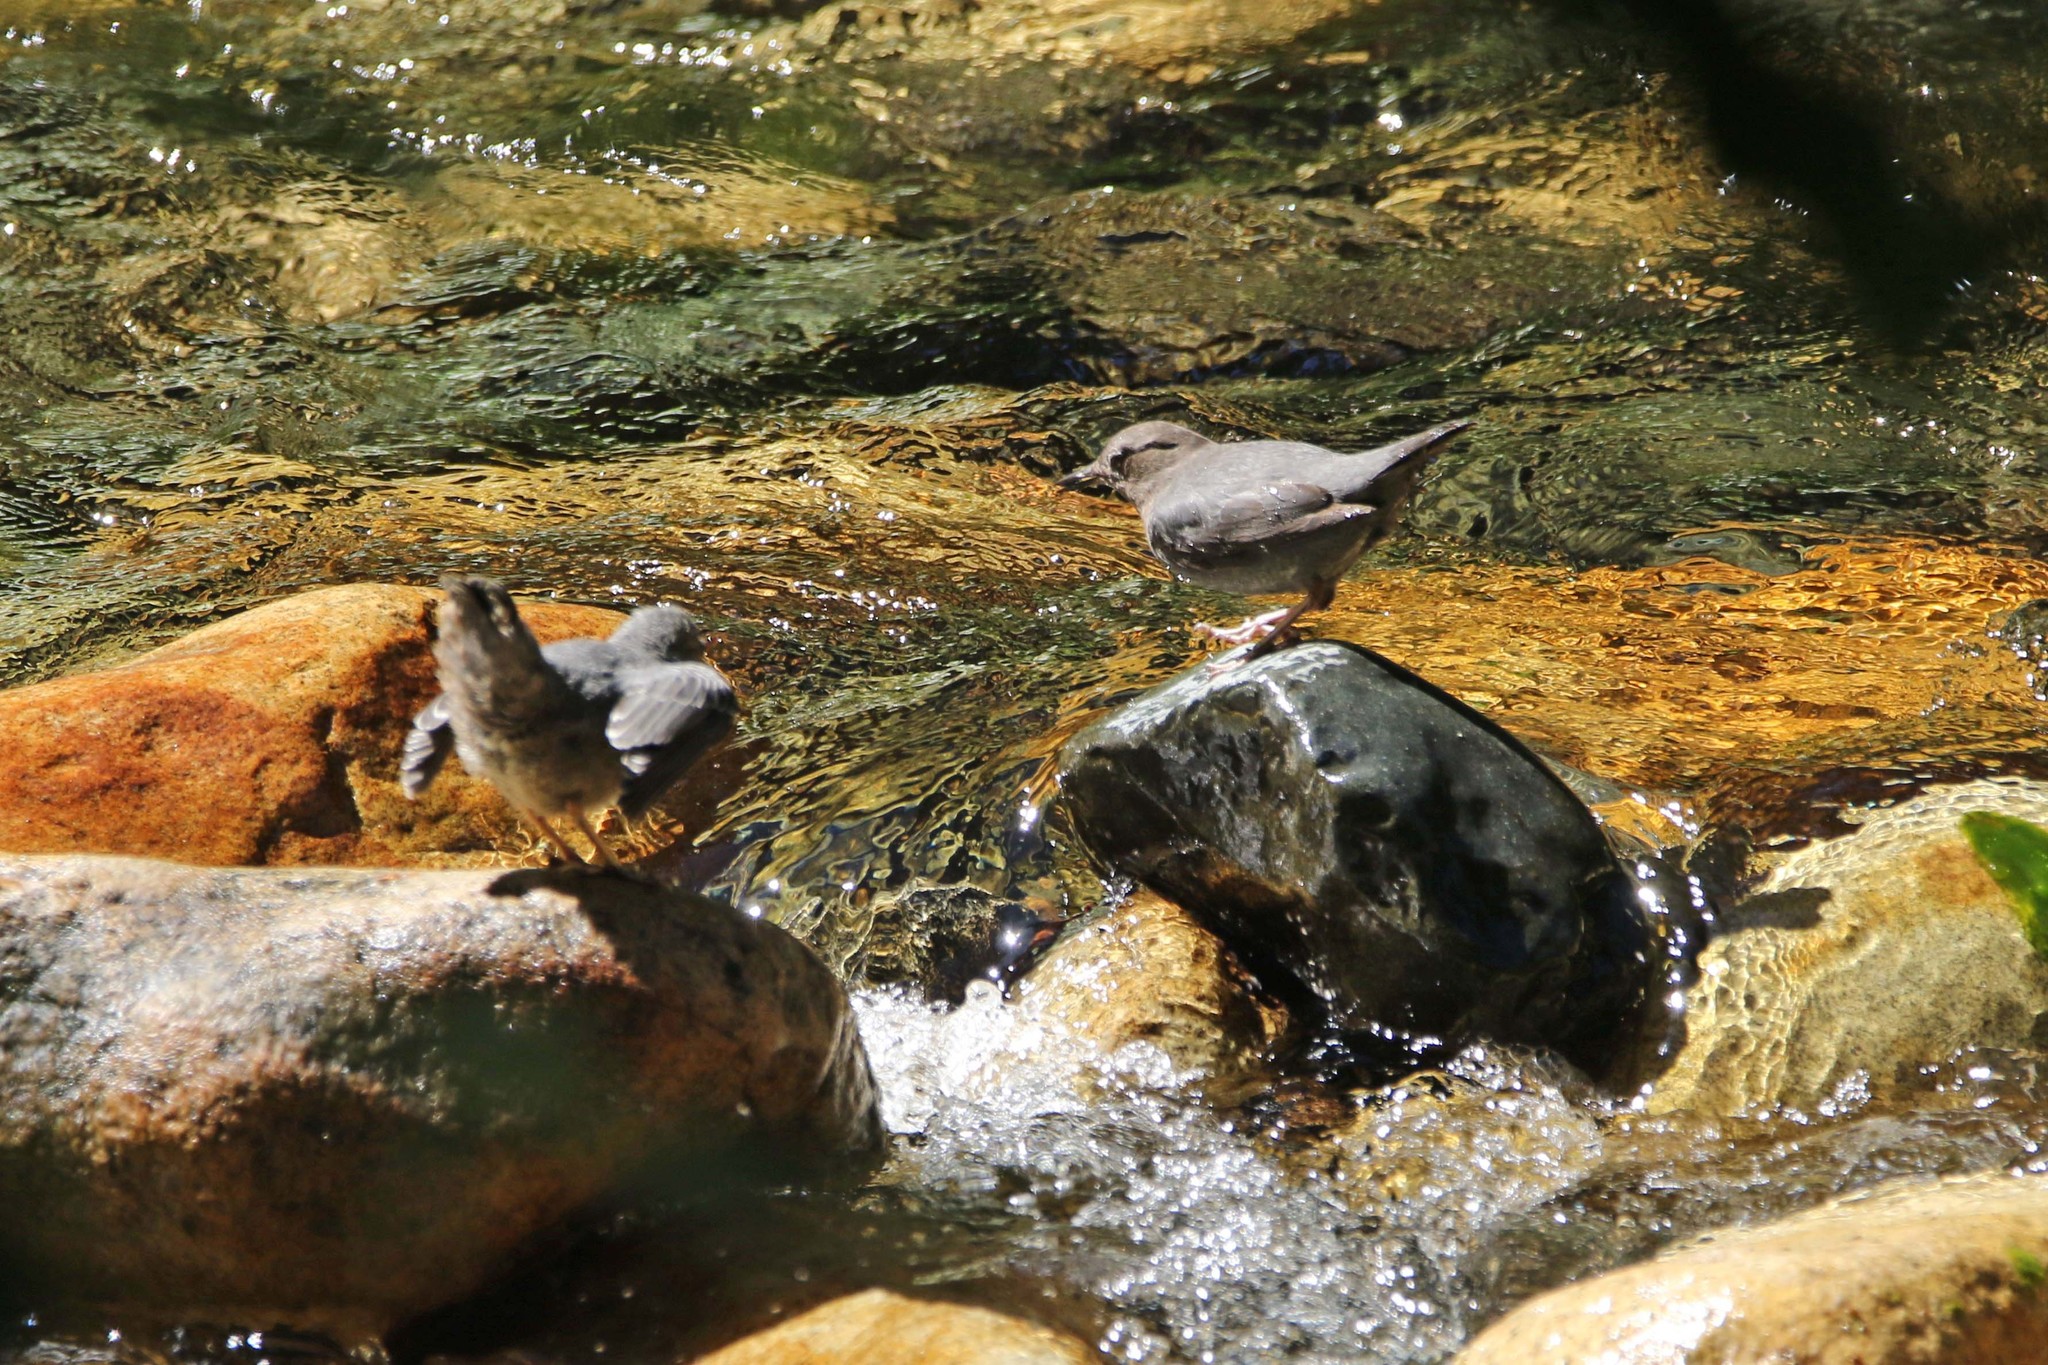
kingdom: Animalia
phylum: Chordata
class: Aves
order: Passeriformes
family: Cinclidae
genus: Cinclus
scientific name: Cinclus mexicanus
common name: American dipper
